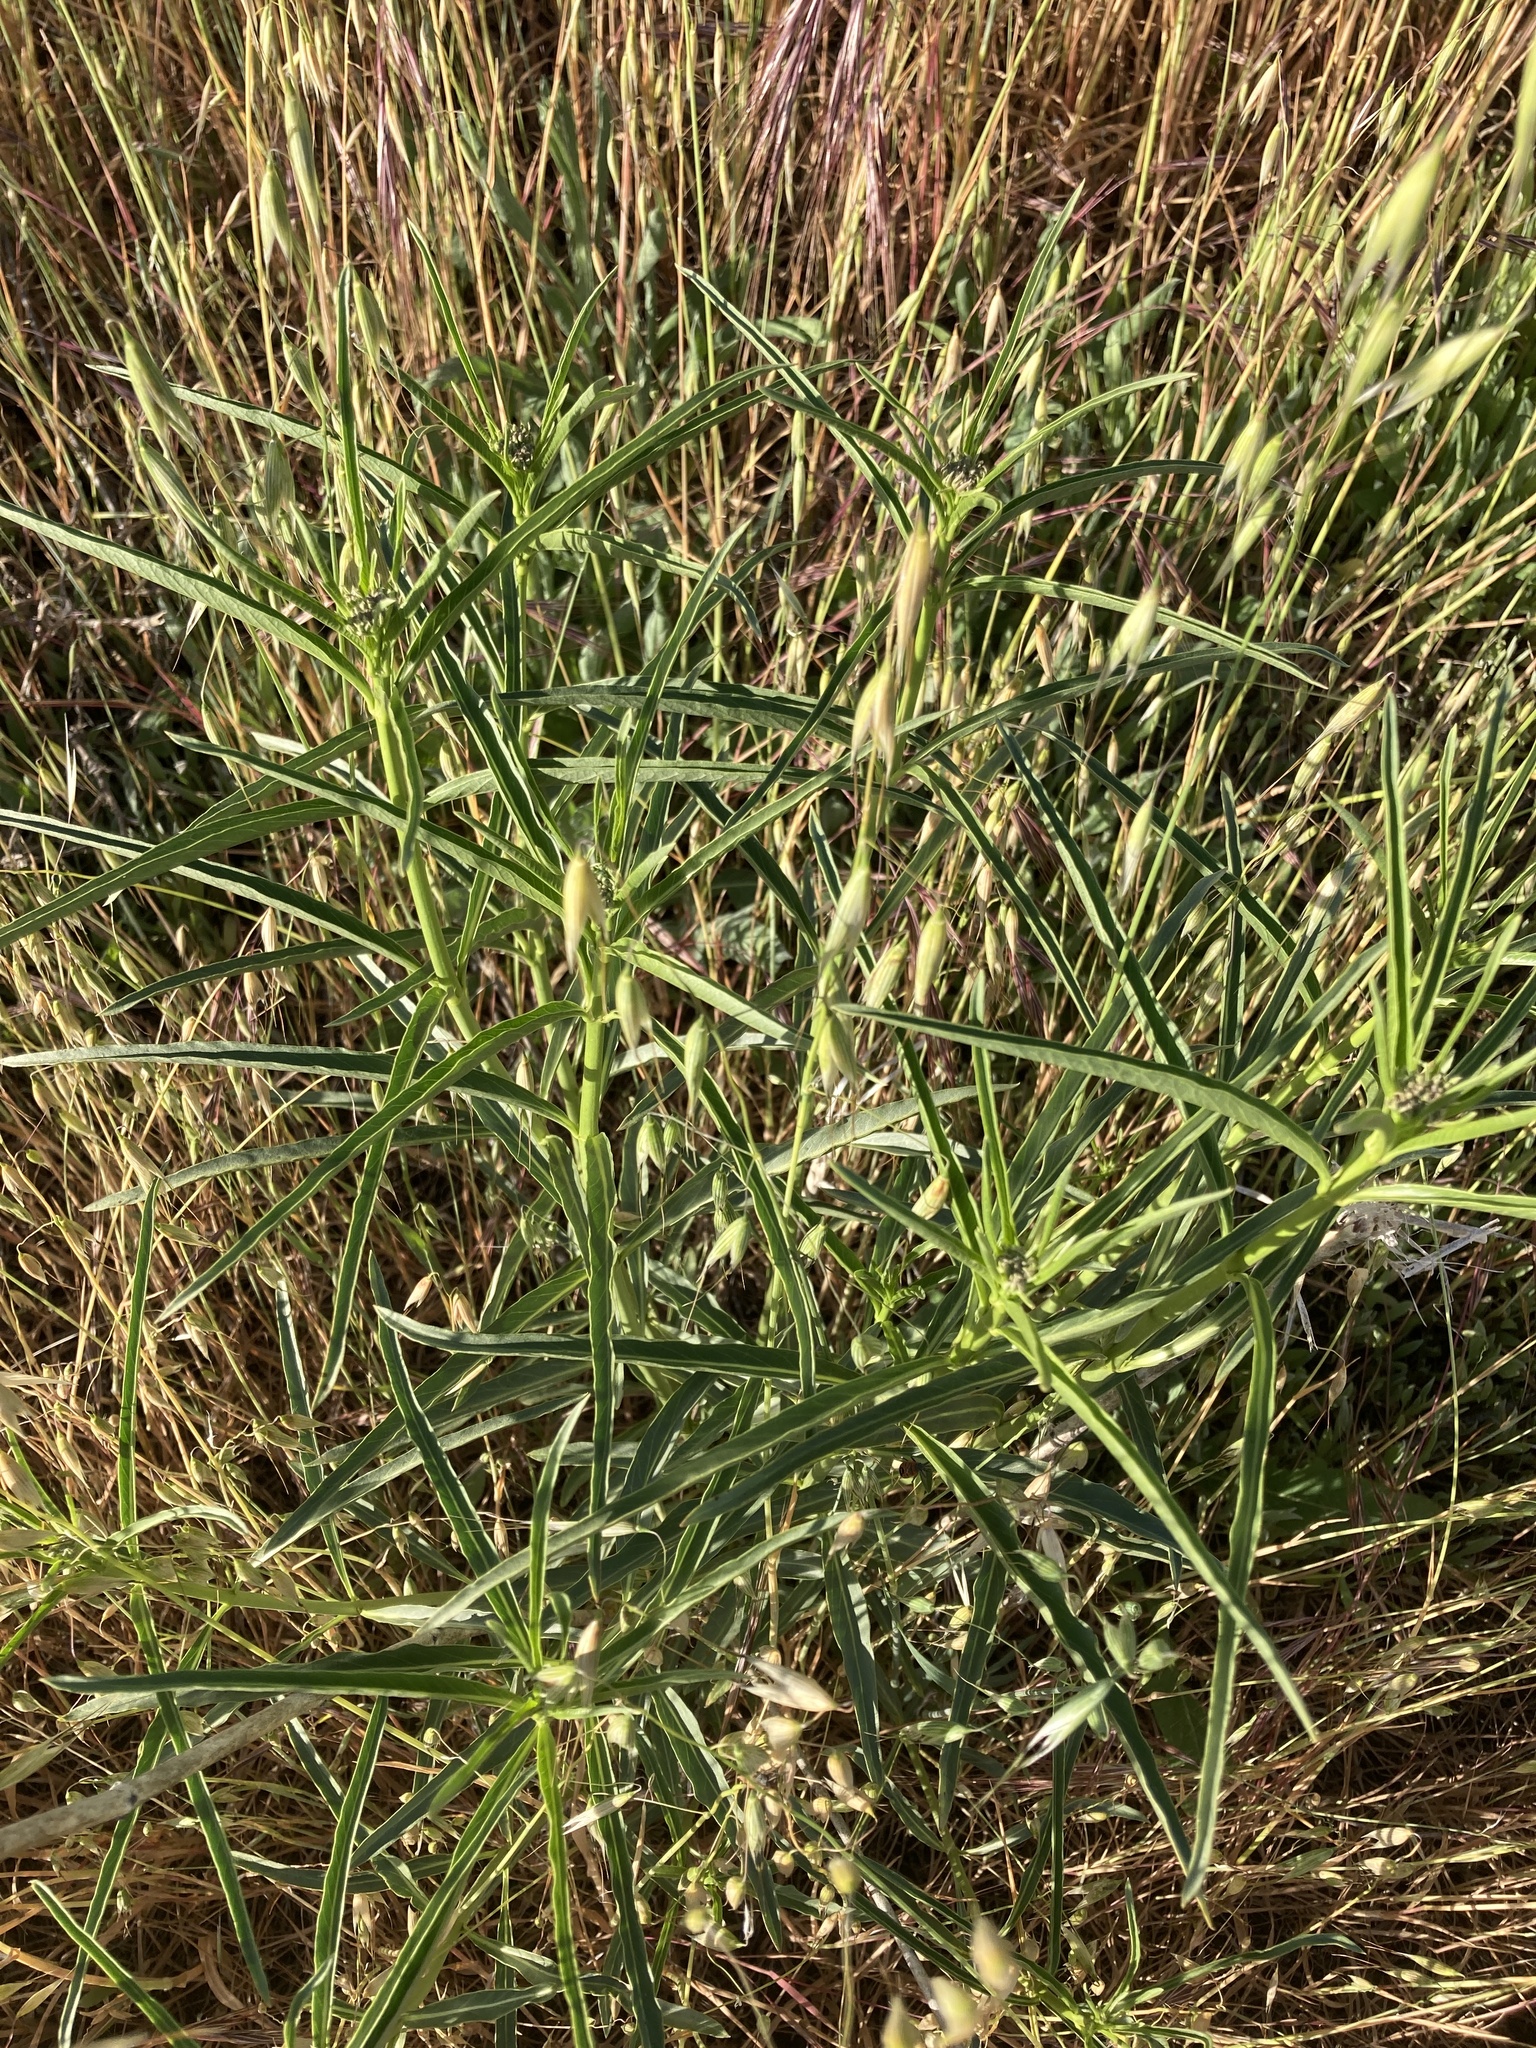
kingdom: Plantae
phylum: Tracheophyta
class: Magnoliopsida
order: Gentianales
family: Apocynaceae
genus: Asclepias
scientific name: Asclepias fascicularis
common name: Mexican milkweed
